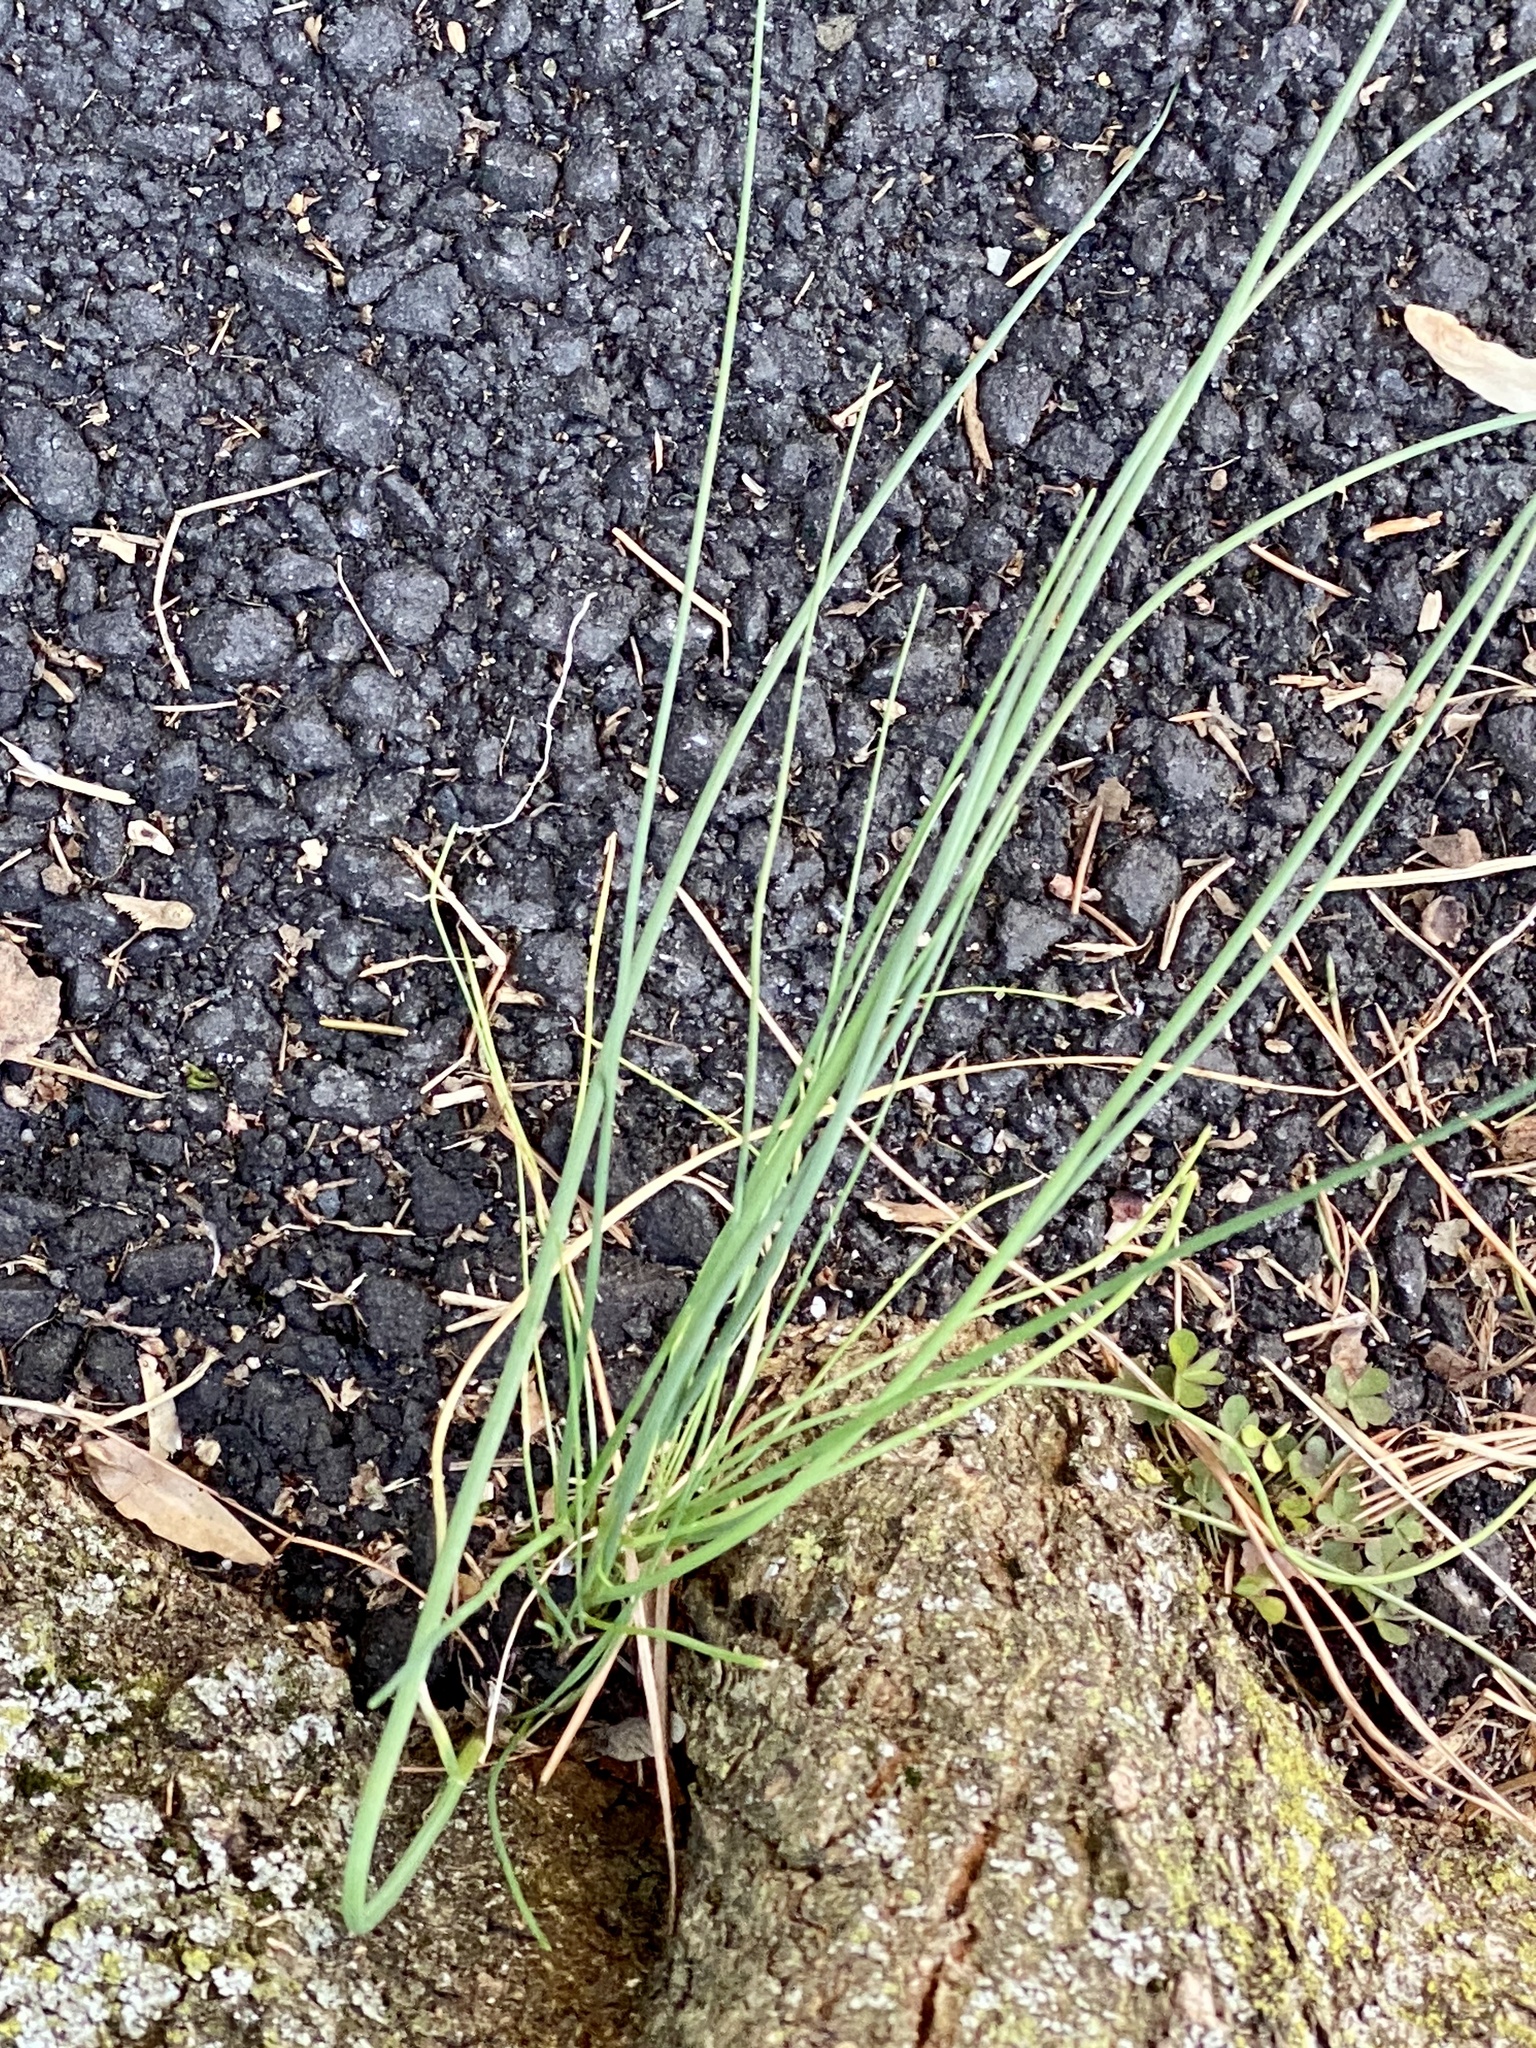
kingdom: Plantae
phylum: Tracheophyta
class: Liliopsida
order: Asparagales
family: Amaryllidaceae
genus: Allium
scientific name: Allium vineale
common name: Crow garlic
